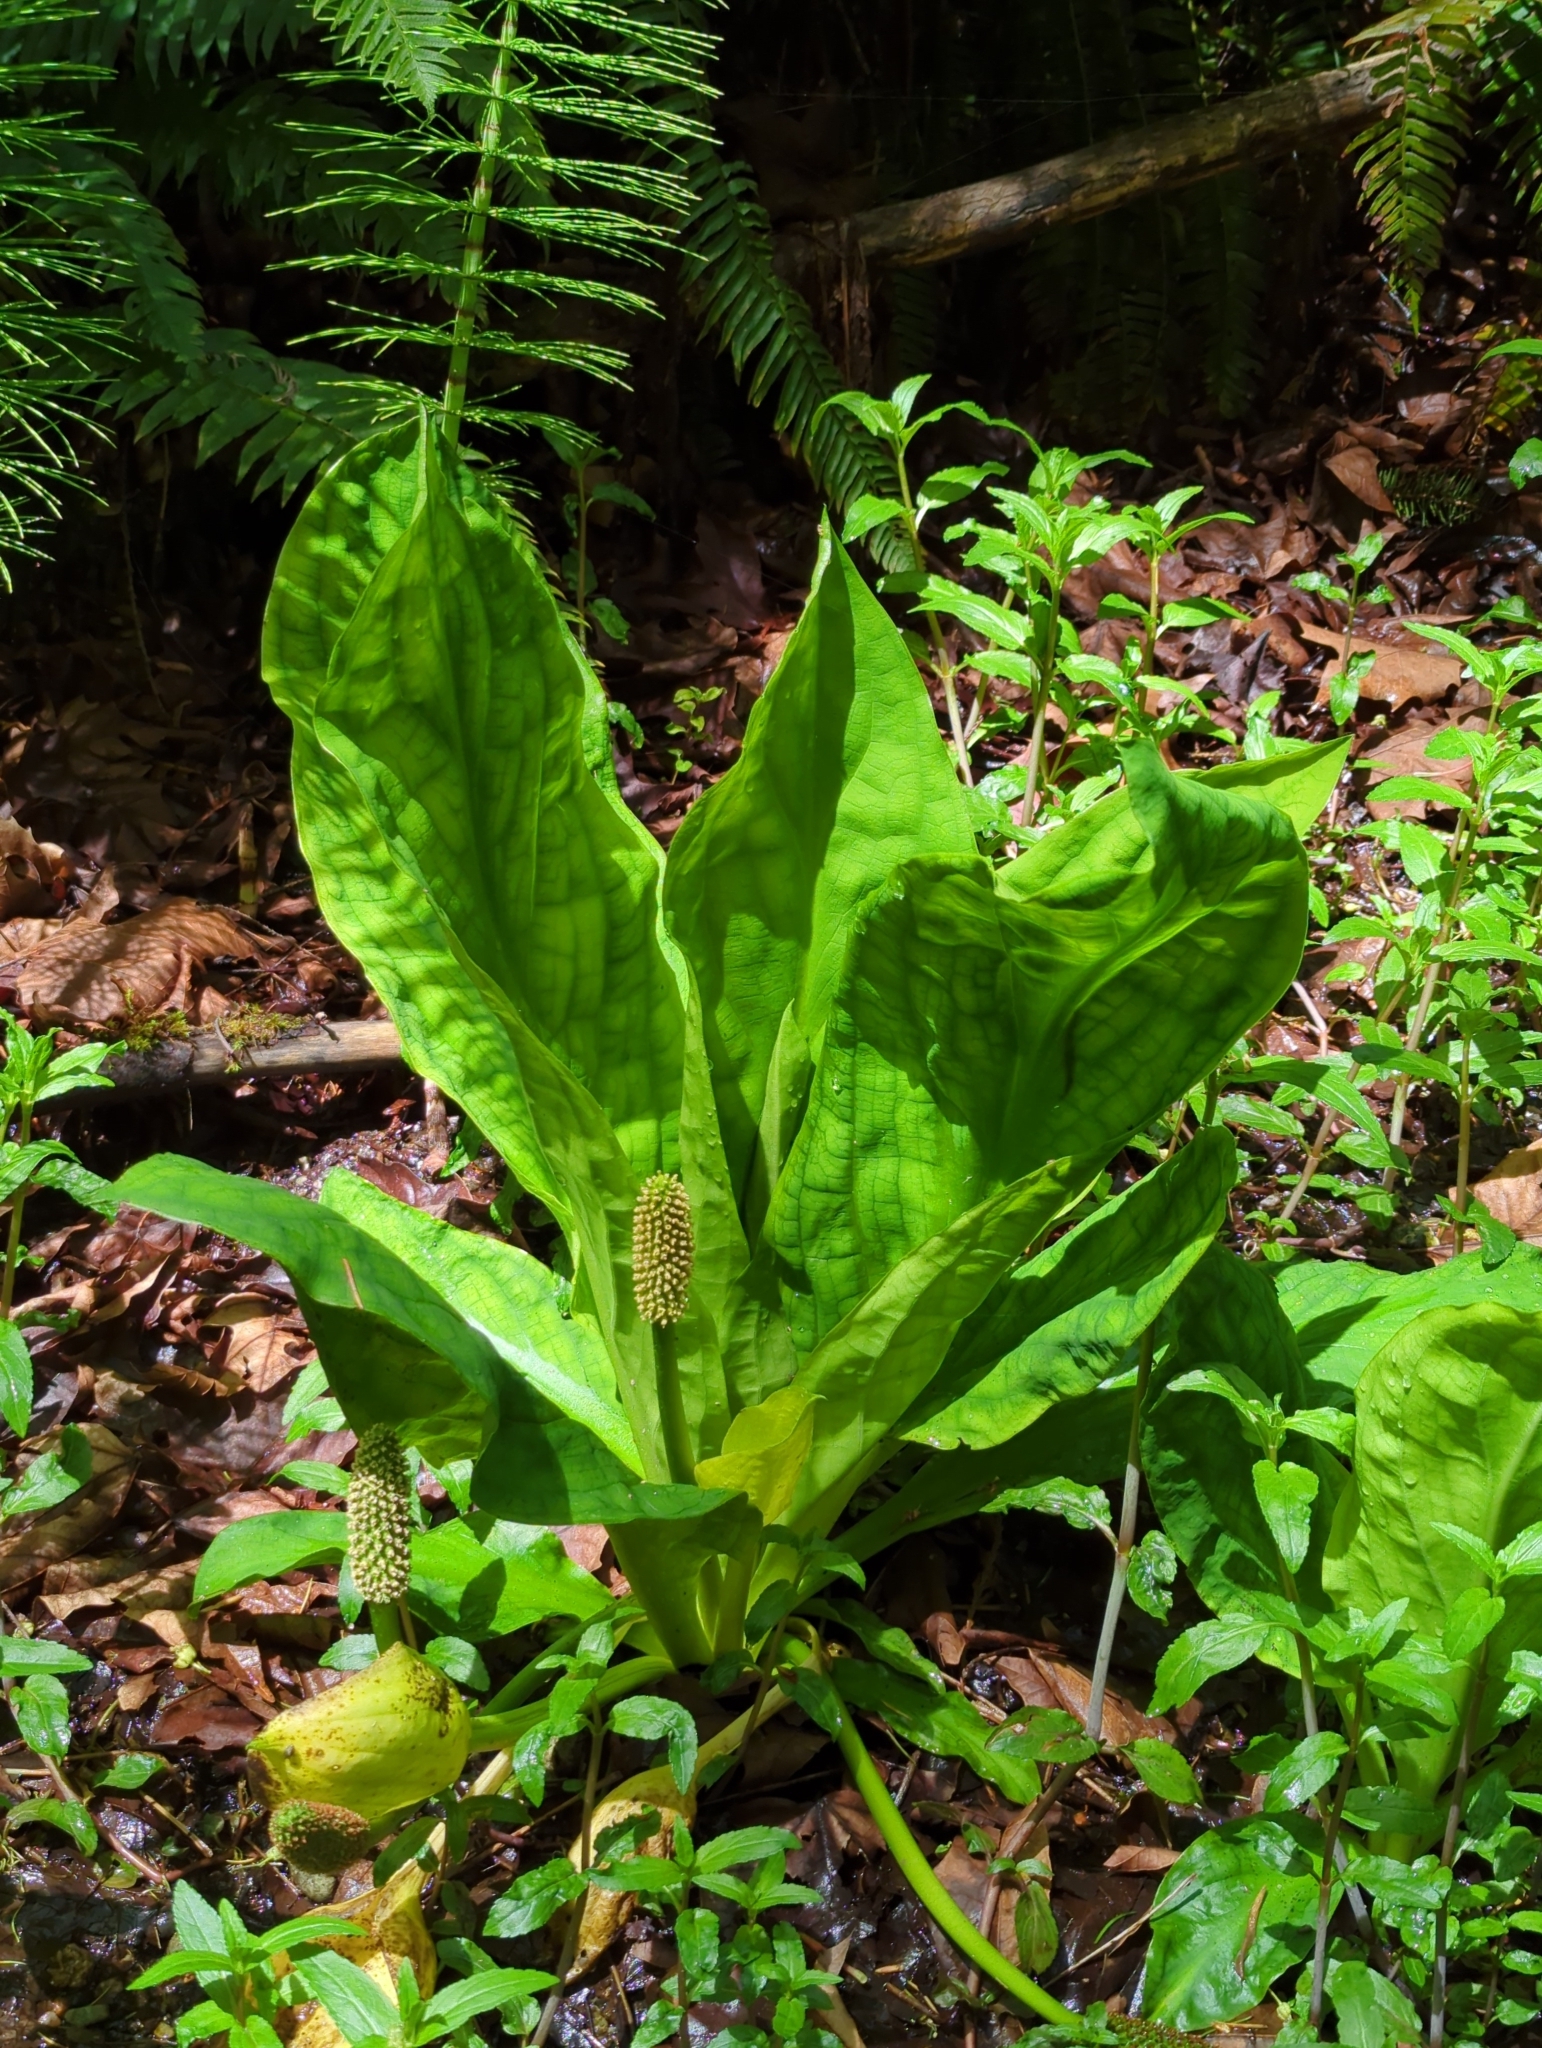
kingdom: Plantae
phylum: Tracheophyta
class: Liliopsida
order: Alismatales
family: Araceae
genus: Lysichiton
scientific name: Lysichiton americanus
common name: American skunk cabbage
